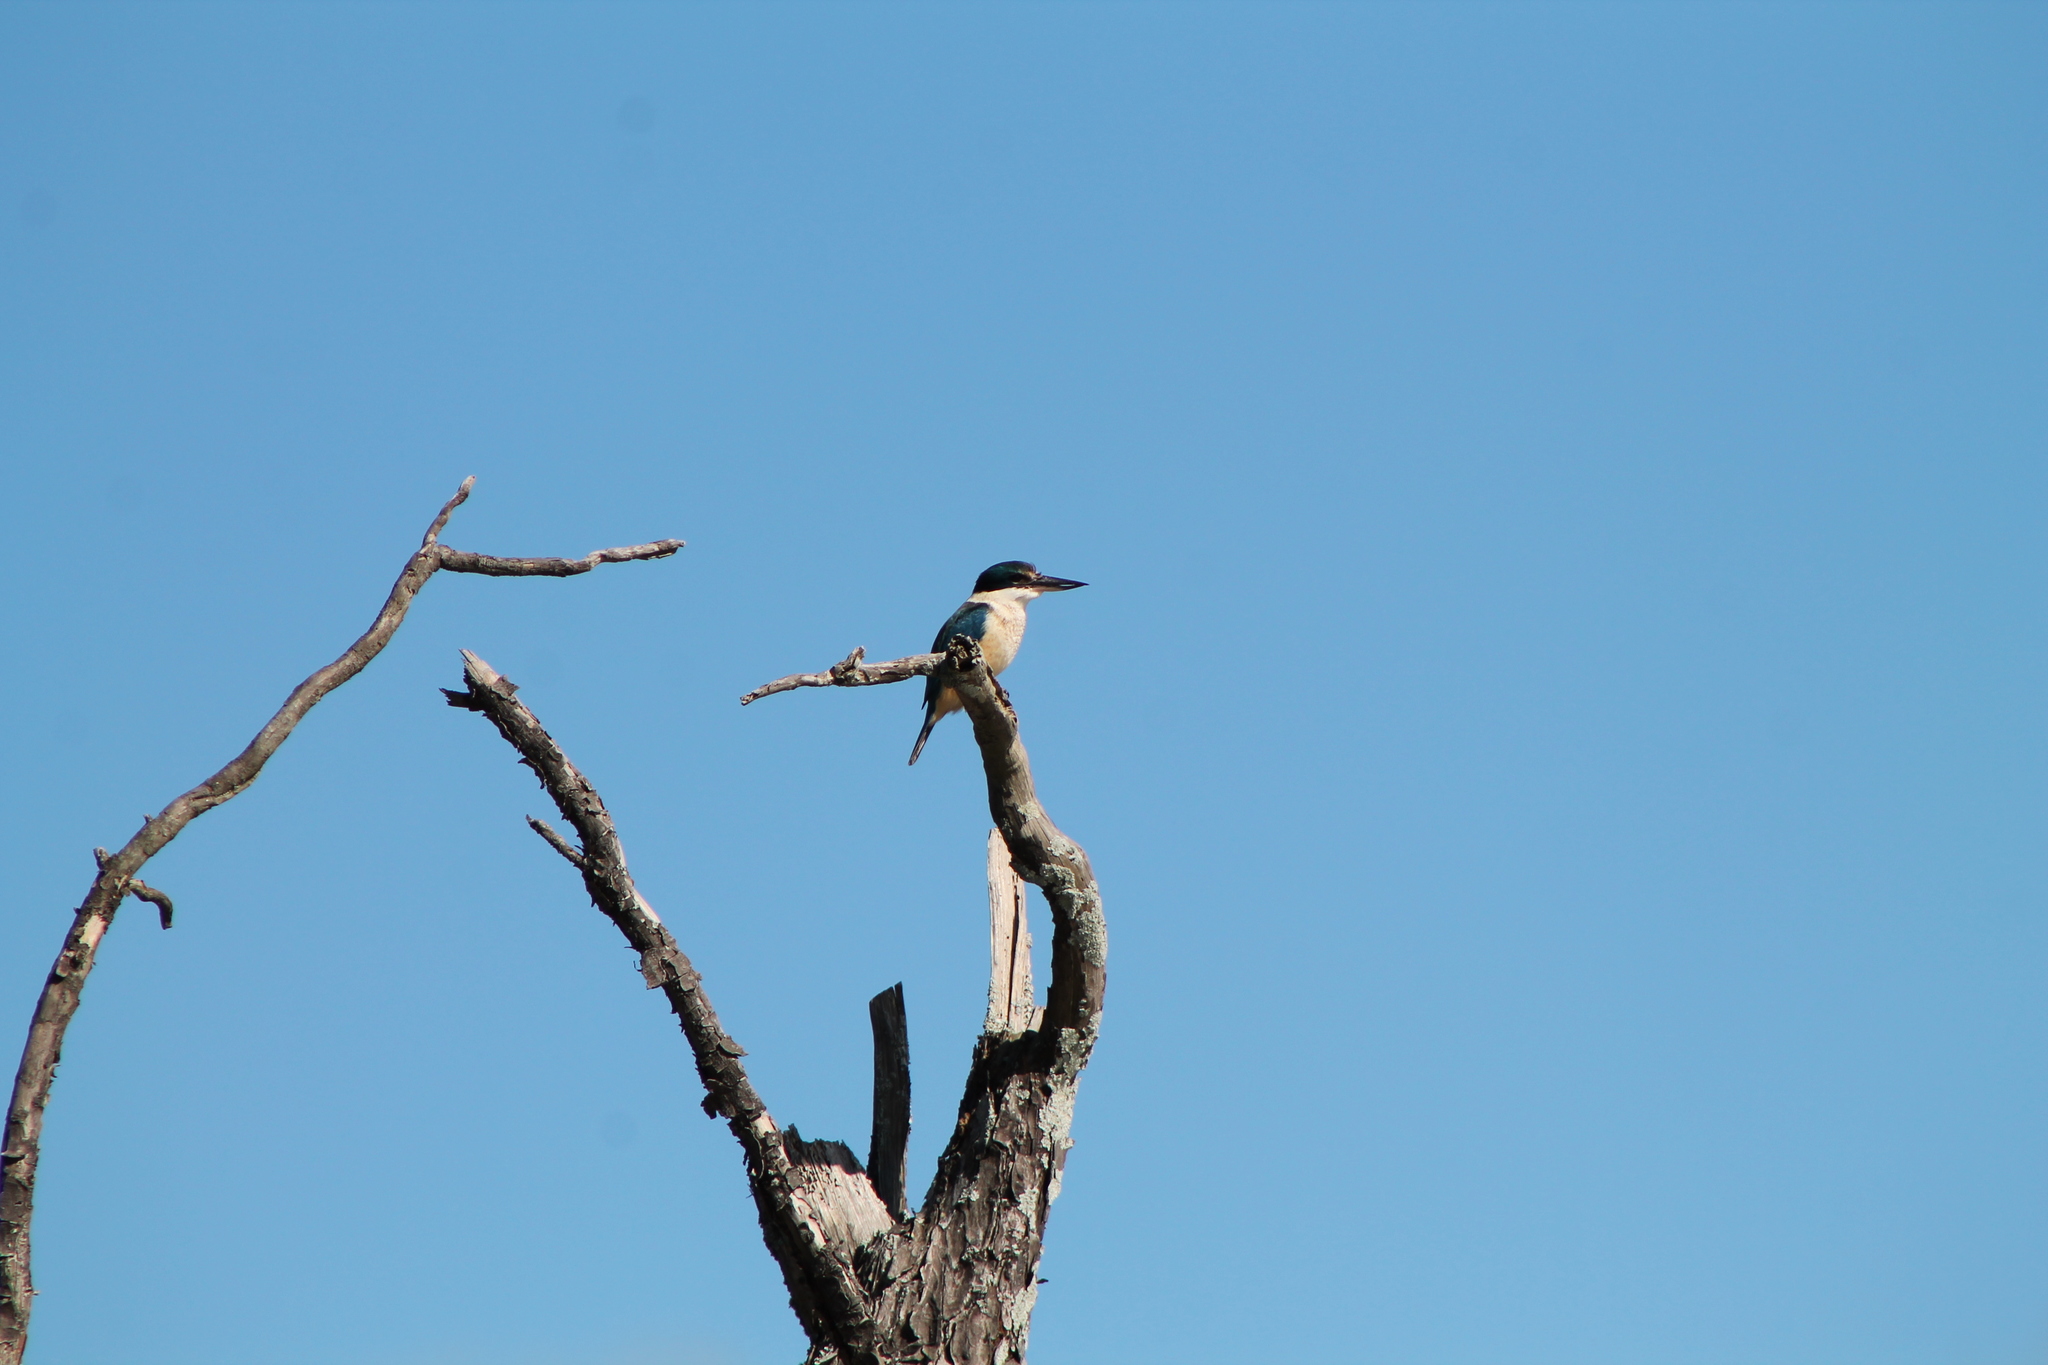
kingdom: Animalia
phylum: Chordata
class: Aves
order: Coraciiformes
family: Alcedinidae
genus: Todiramphus
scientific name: Todiramphus sanctus
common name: Sacred kingfisher
